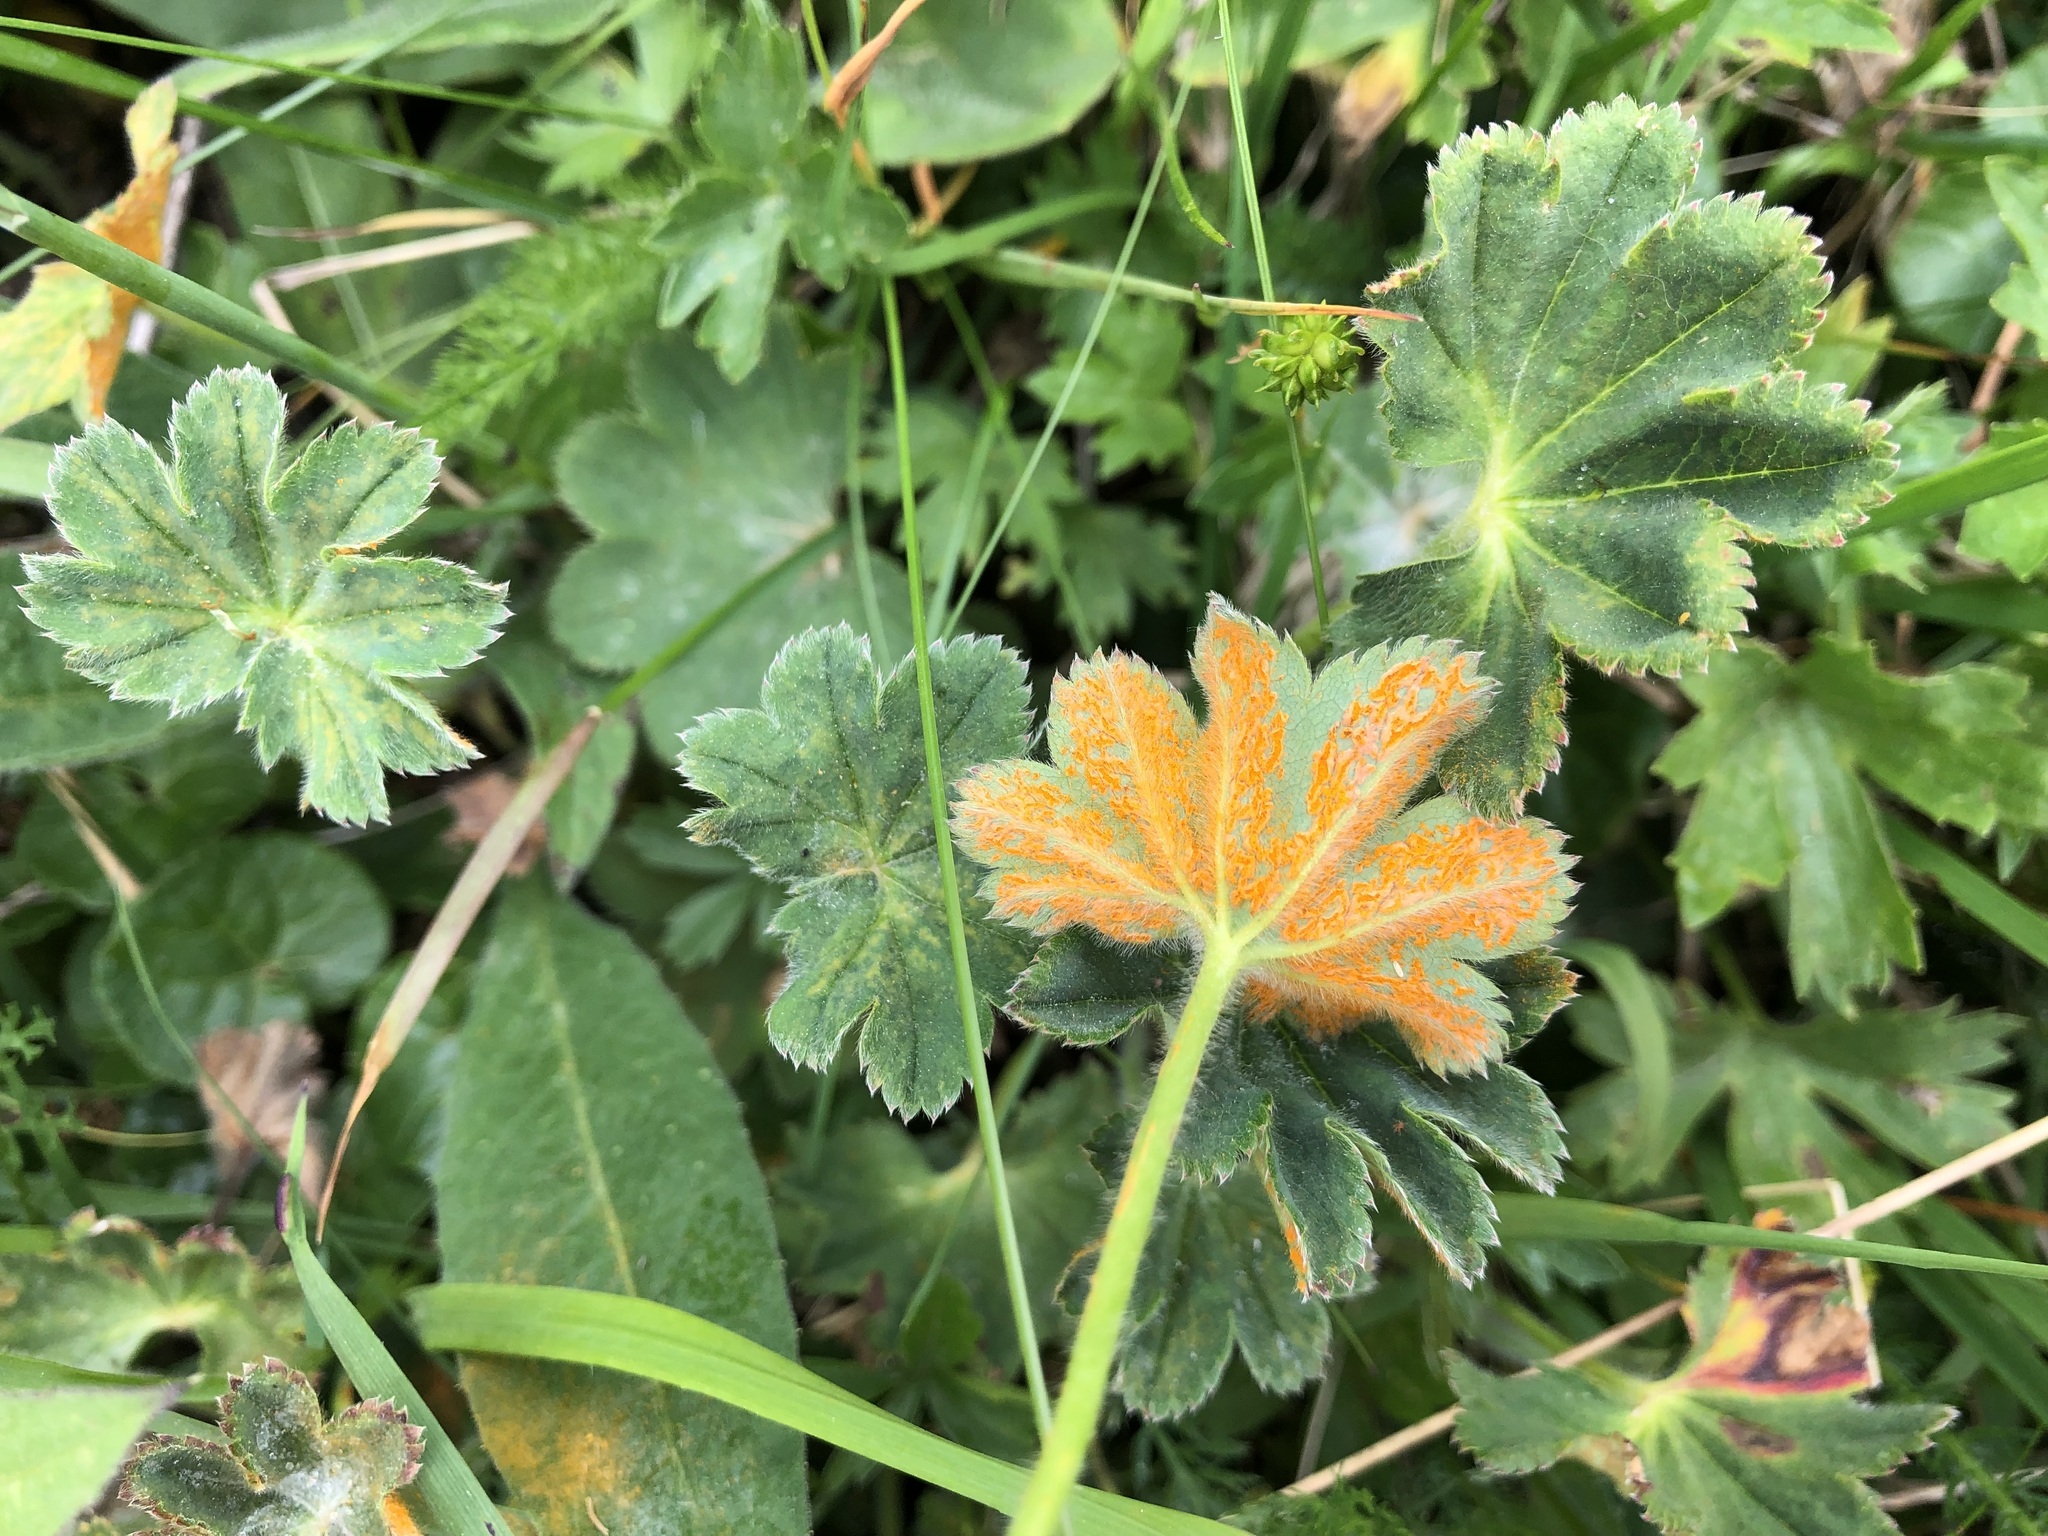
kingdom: Fungi
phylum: Basidiomycota
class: Pucciniomycetes
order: Pucciniales
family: Phragmidiaceae
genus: Trachyspora
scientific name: Trachyspora alchemillae
